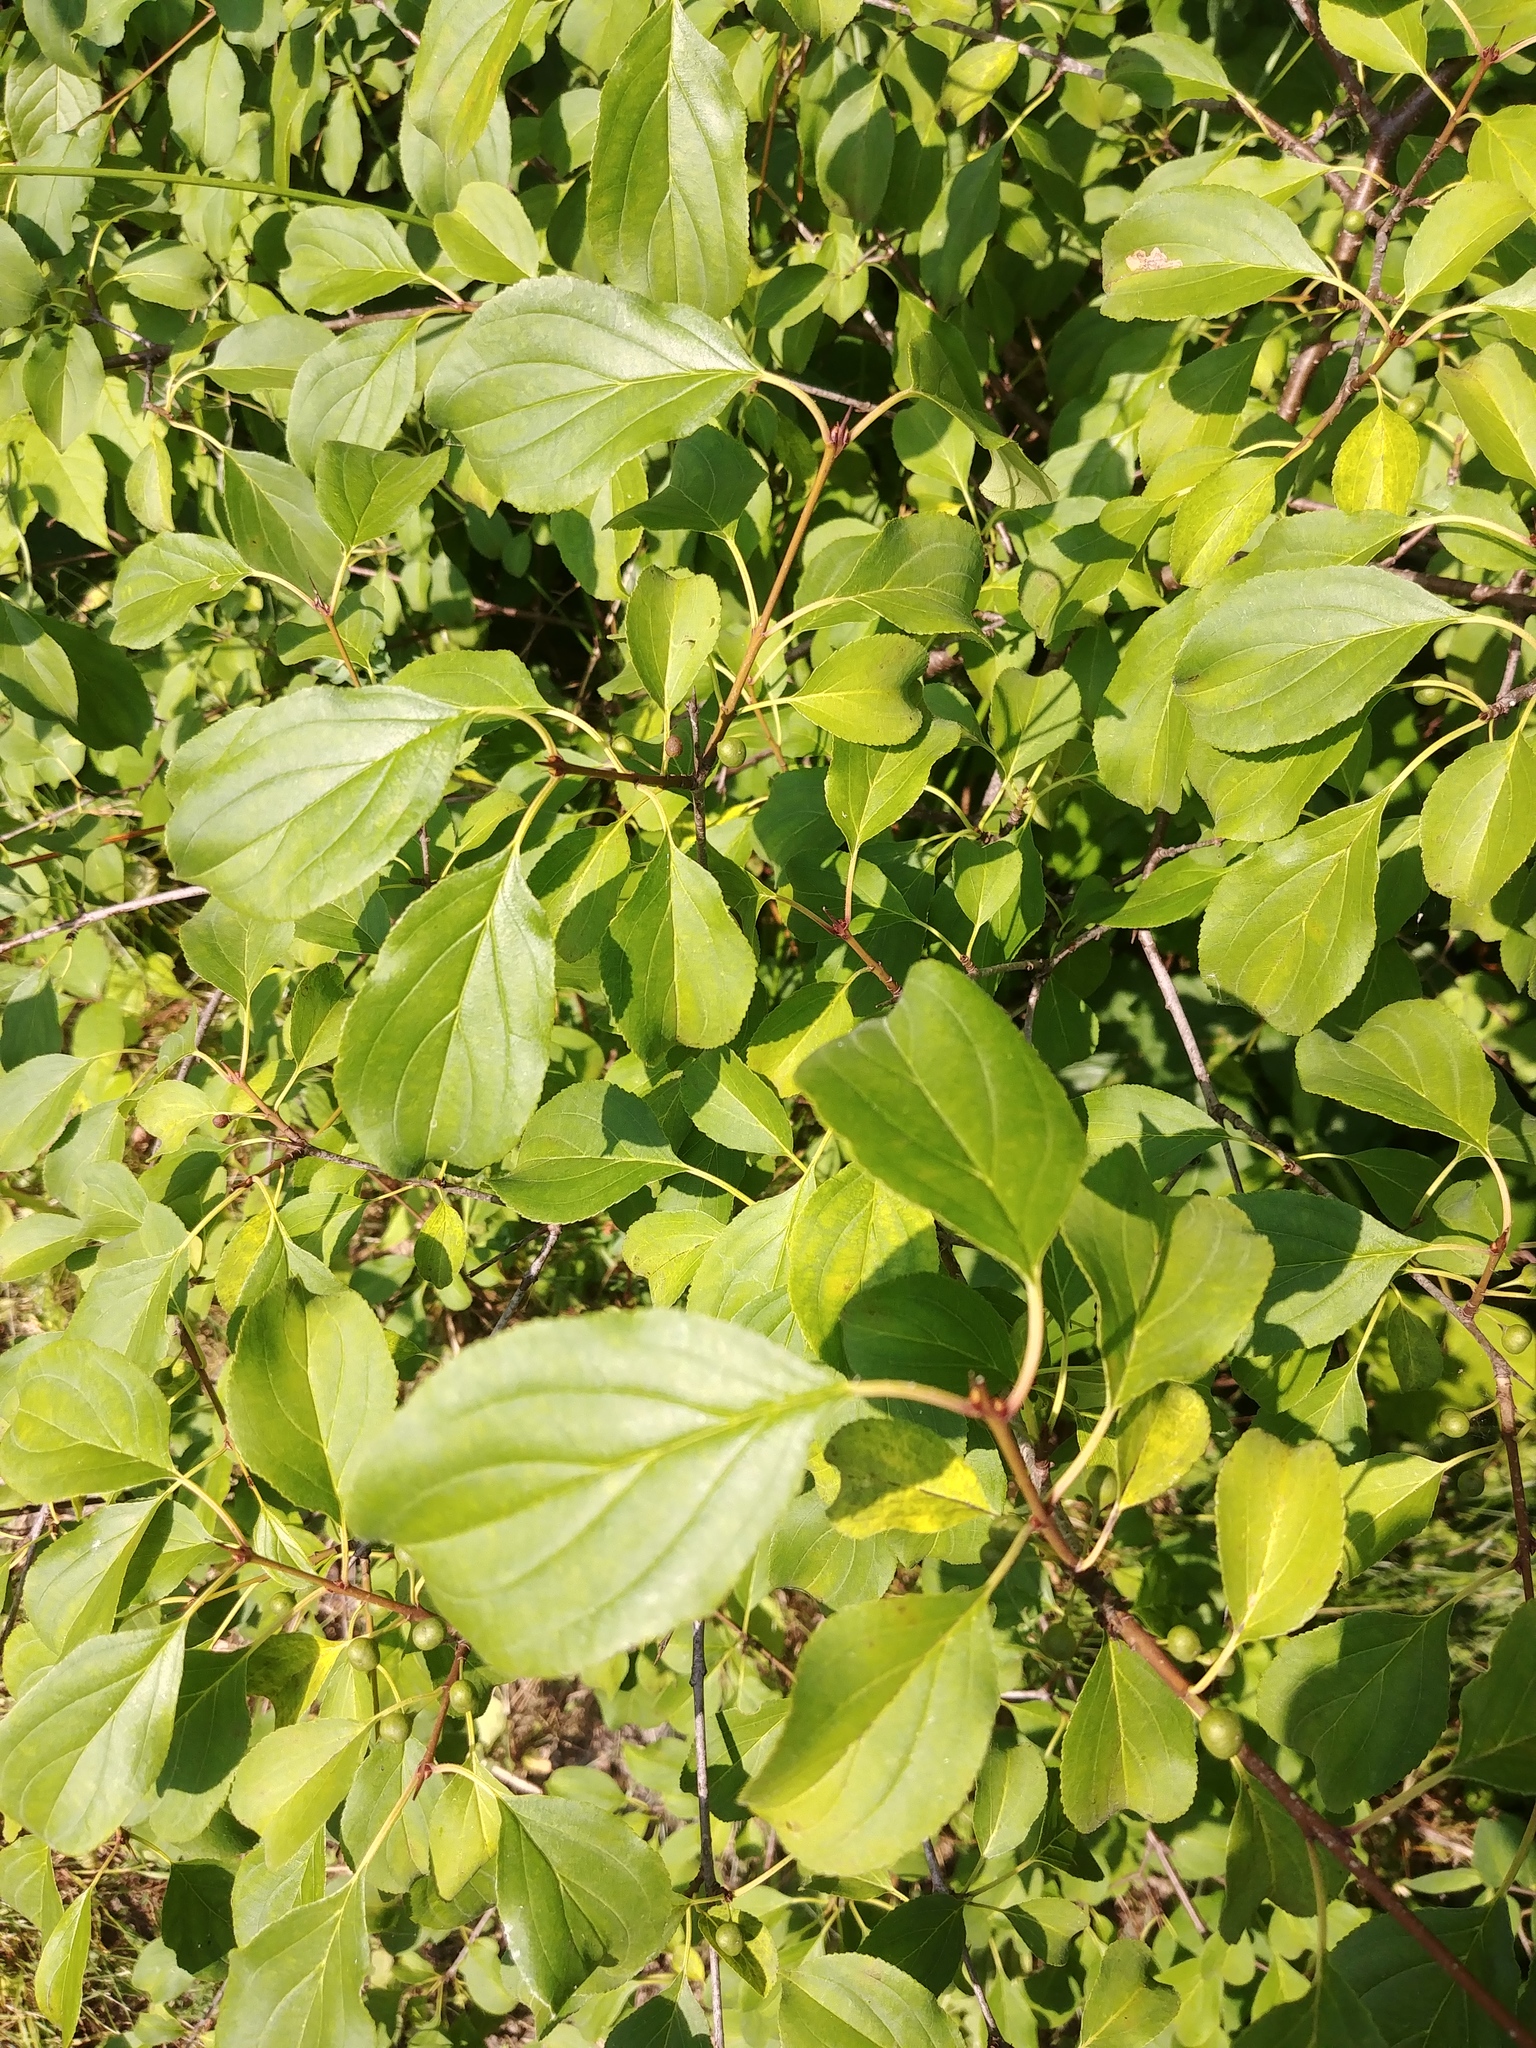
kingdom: Plantae
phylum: Tracheophyta
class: Magnoliopsida
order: Rosales
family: Rhamnaceae
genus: Rhamnus
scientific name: Rhamnus cathartica
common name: Common buckthorn
